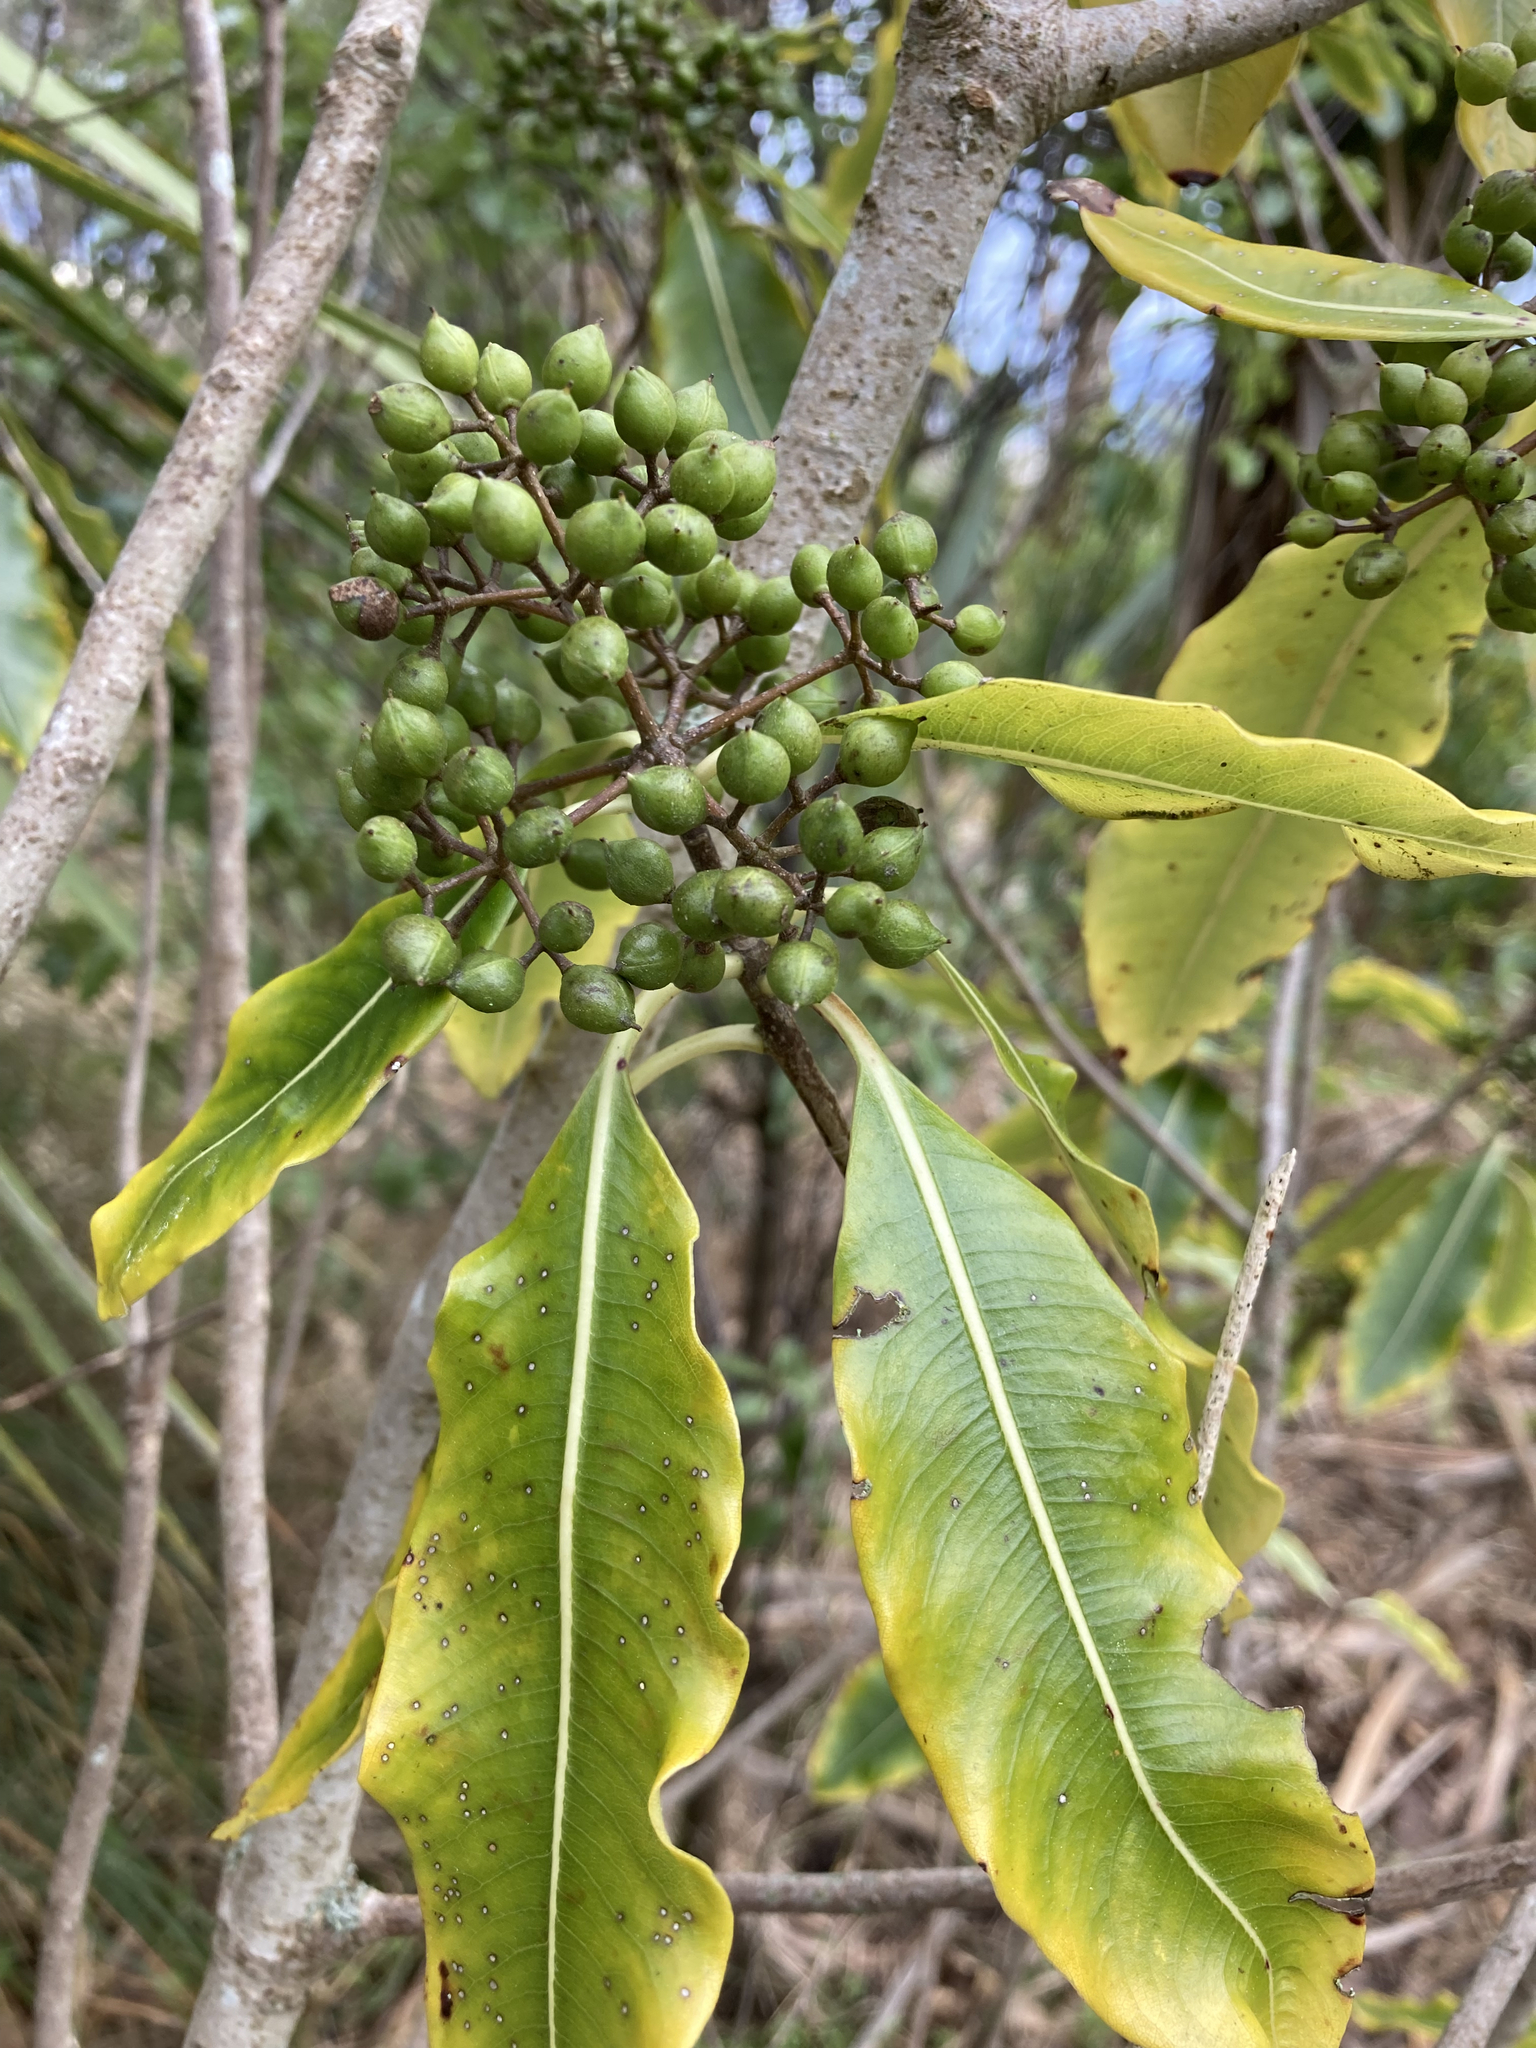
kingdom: Plantae
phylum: Tracheophyta
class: Magnoliopsida
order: Apiales
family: Pittosporaceae
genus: Pittosporum
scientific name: Pittosporum eugenioides
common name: Lemonwood
